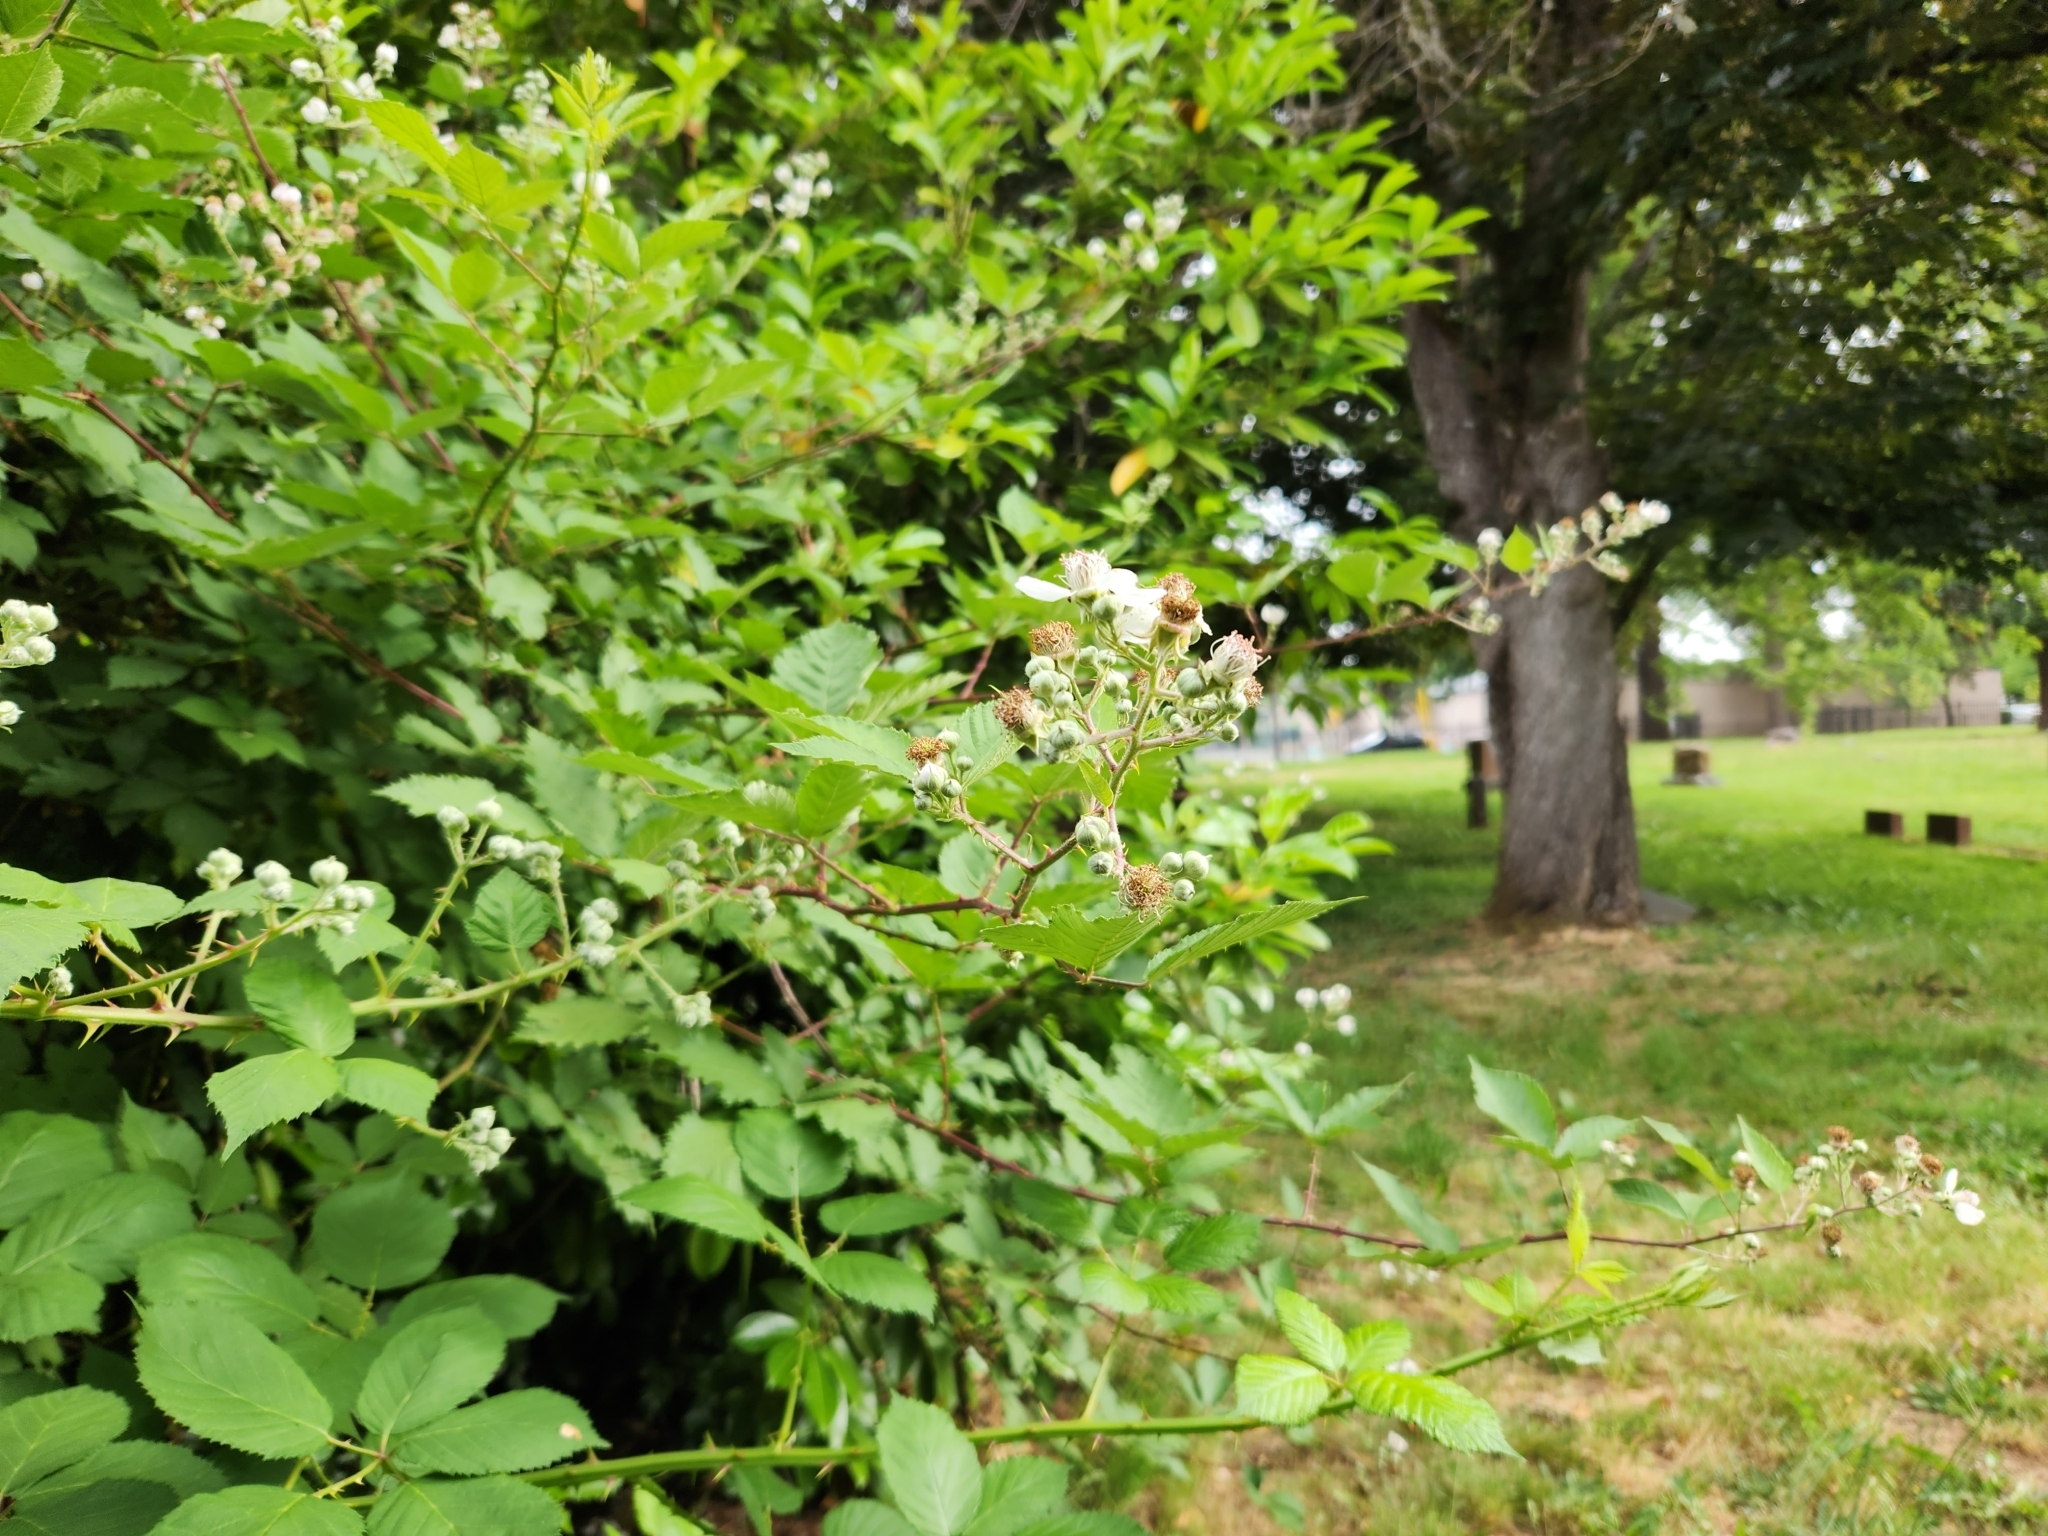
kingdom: Plantae
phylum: Tracheophyta
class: Magnoliopsida
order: Rosales
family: Rosaceae
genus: Rubus
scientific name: Rubus bifrons
